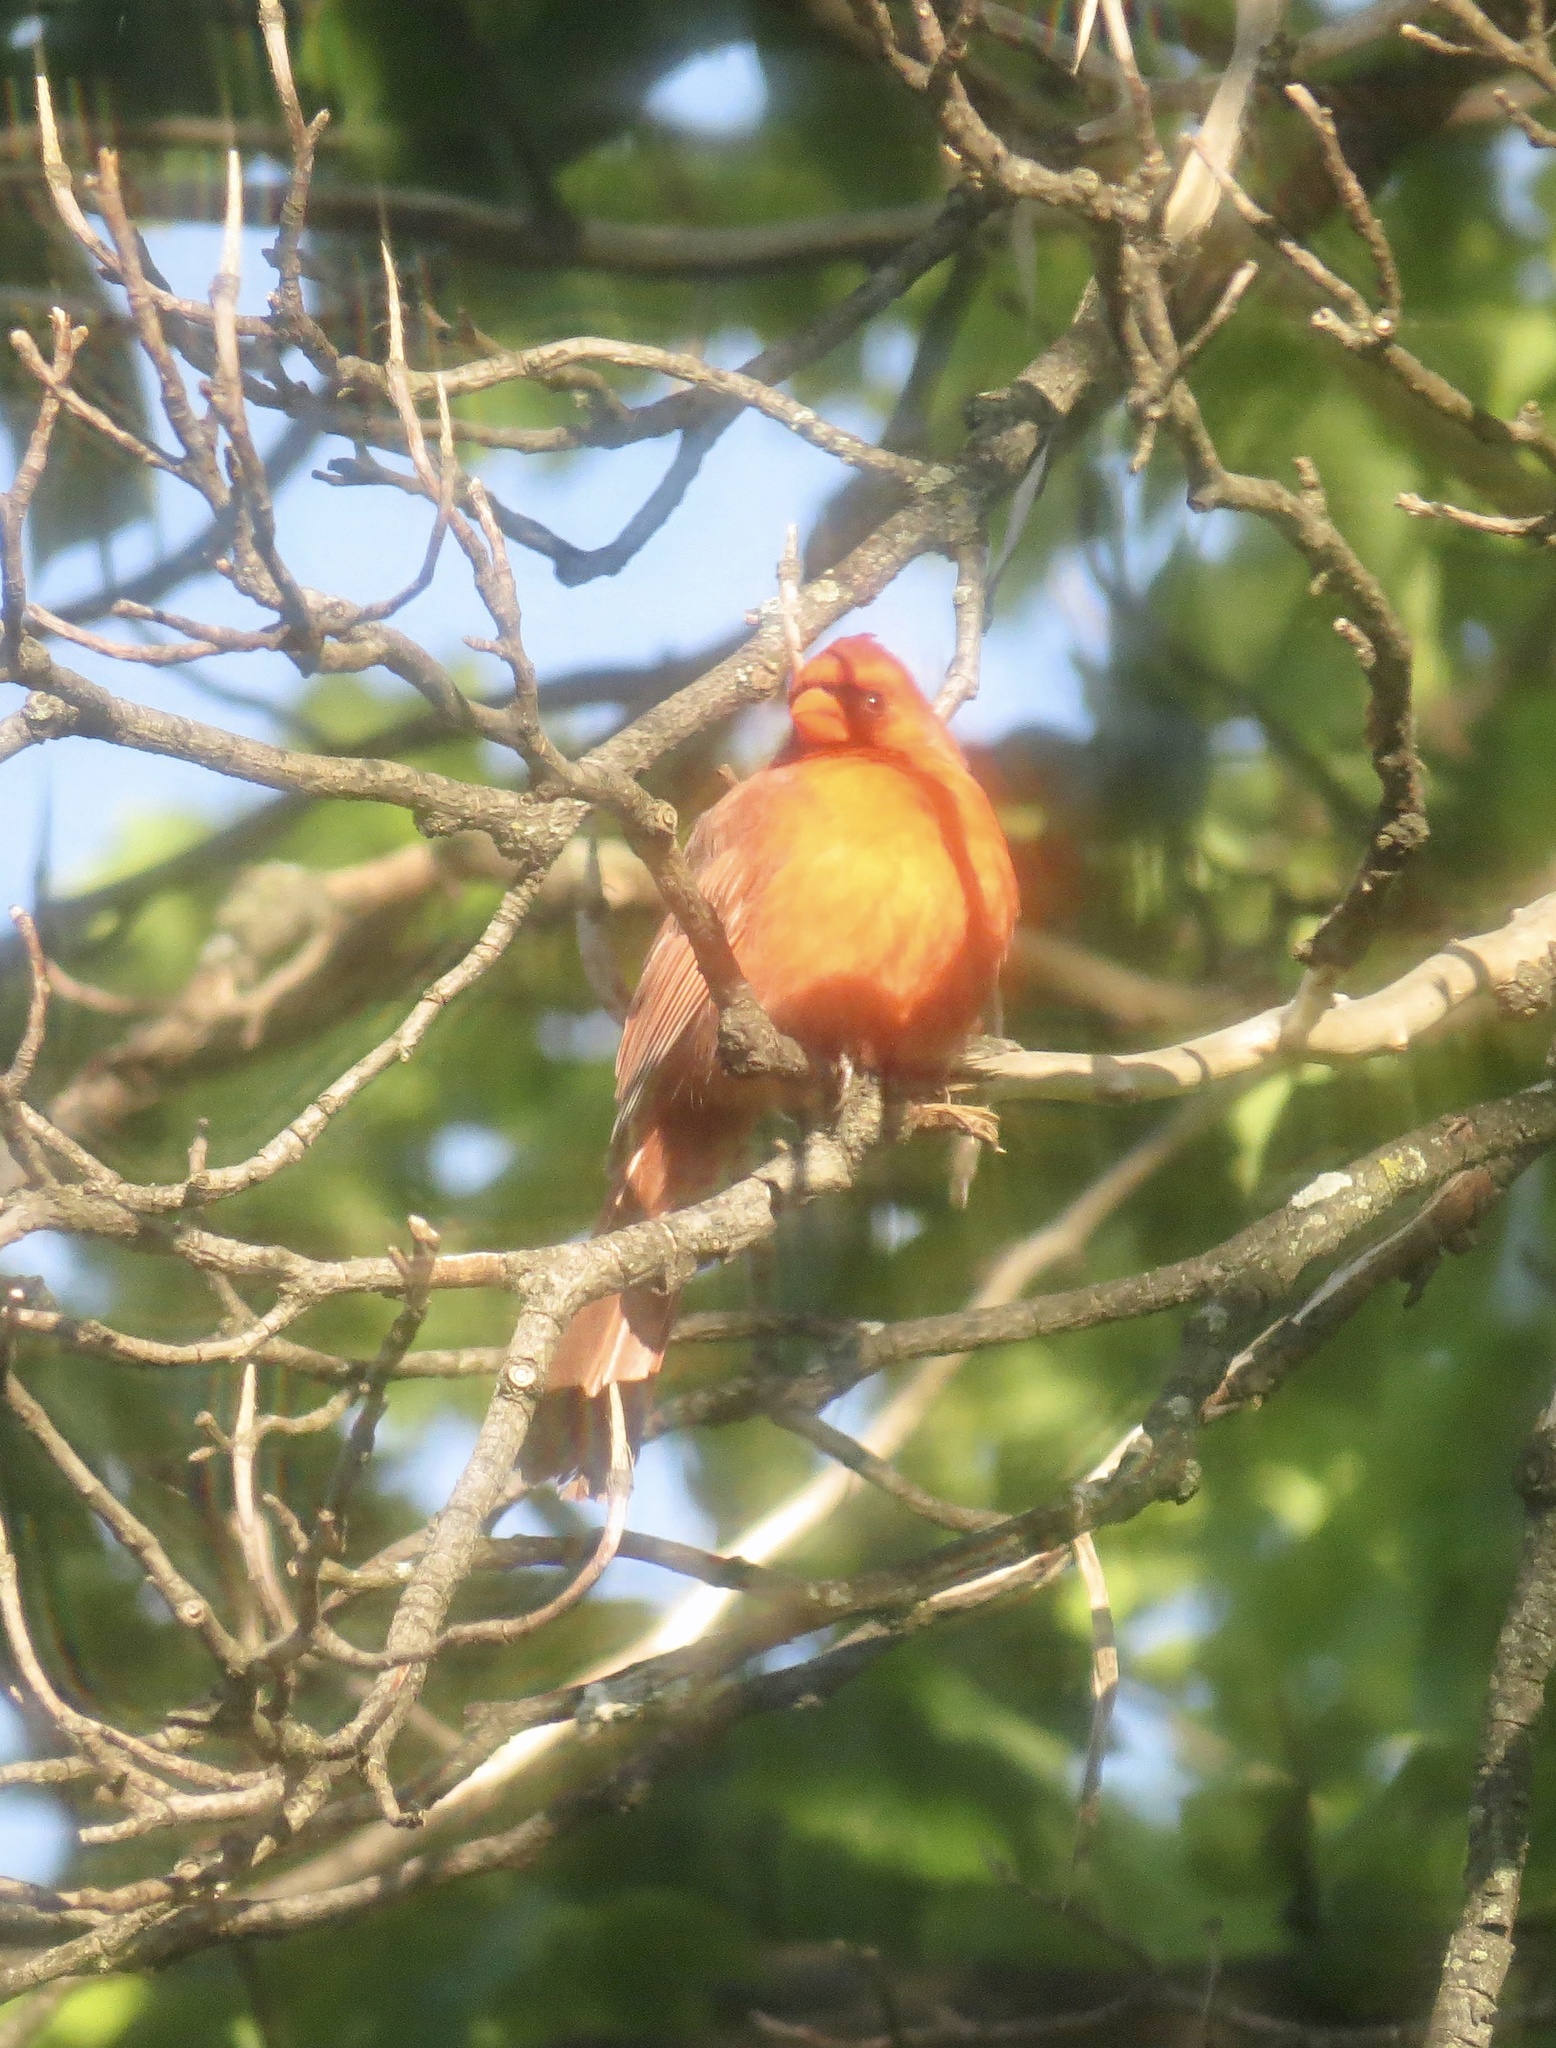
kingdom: Animalia
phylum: Chordata
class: Aves
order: Passeriformes
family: Cardinalidae
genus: Cardinalis
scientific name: Cardinalis cardinalis
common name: Northern cardinal
